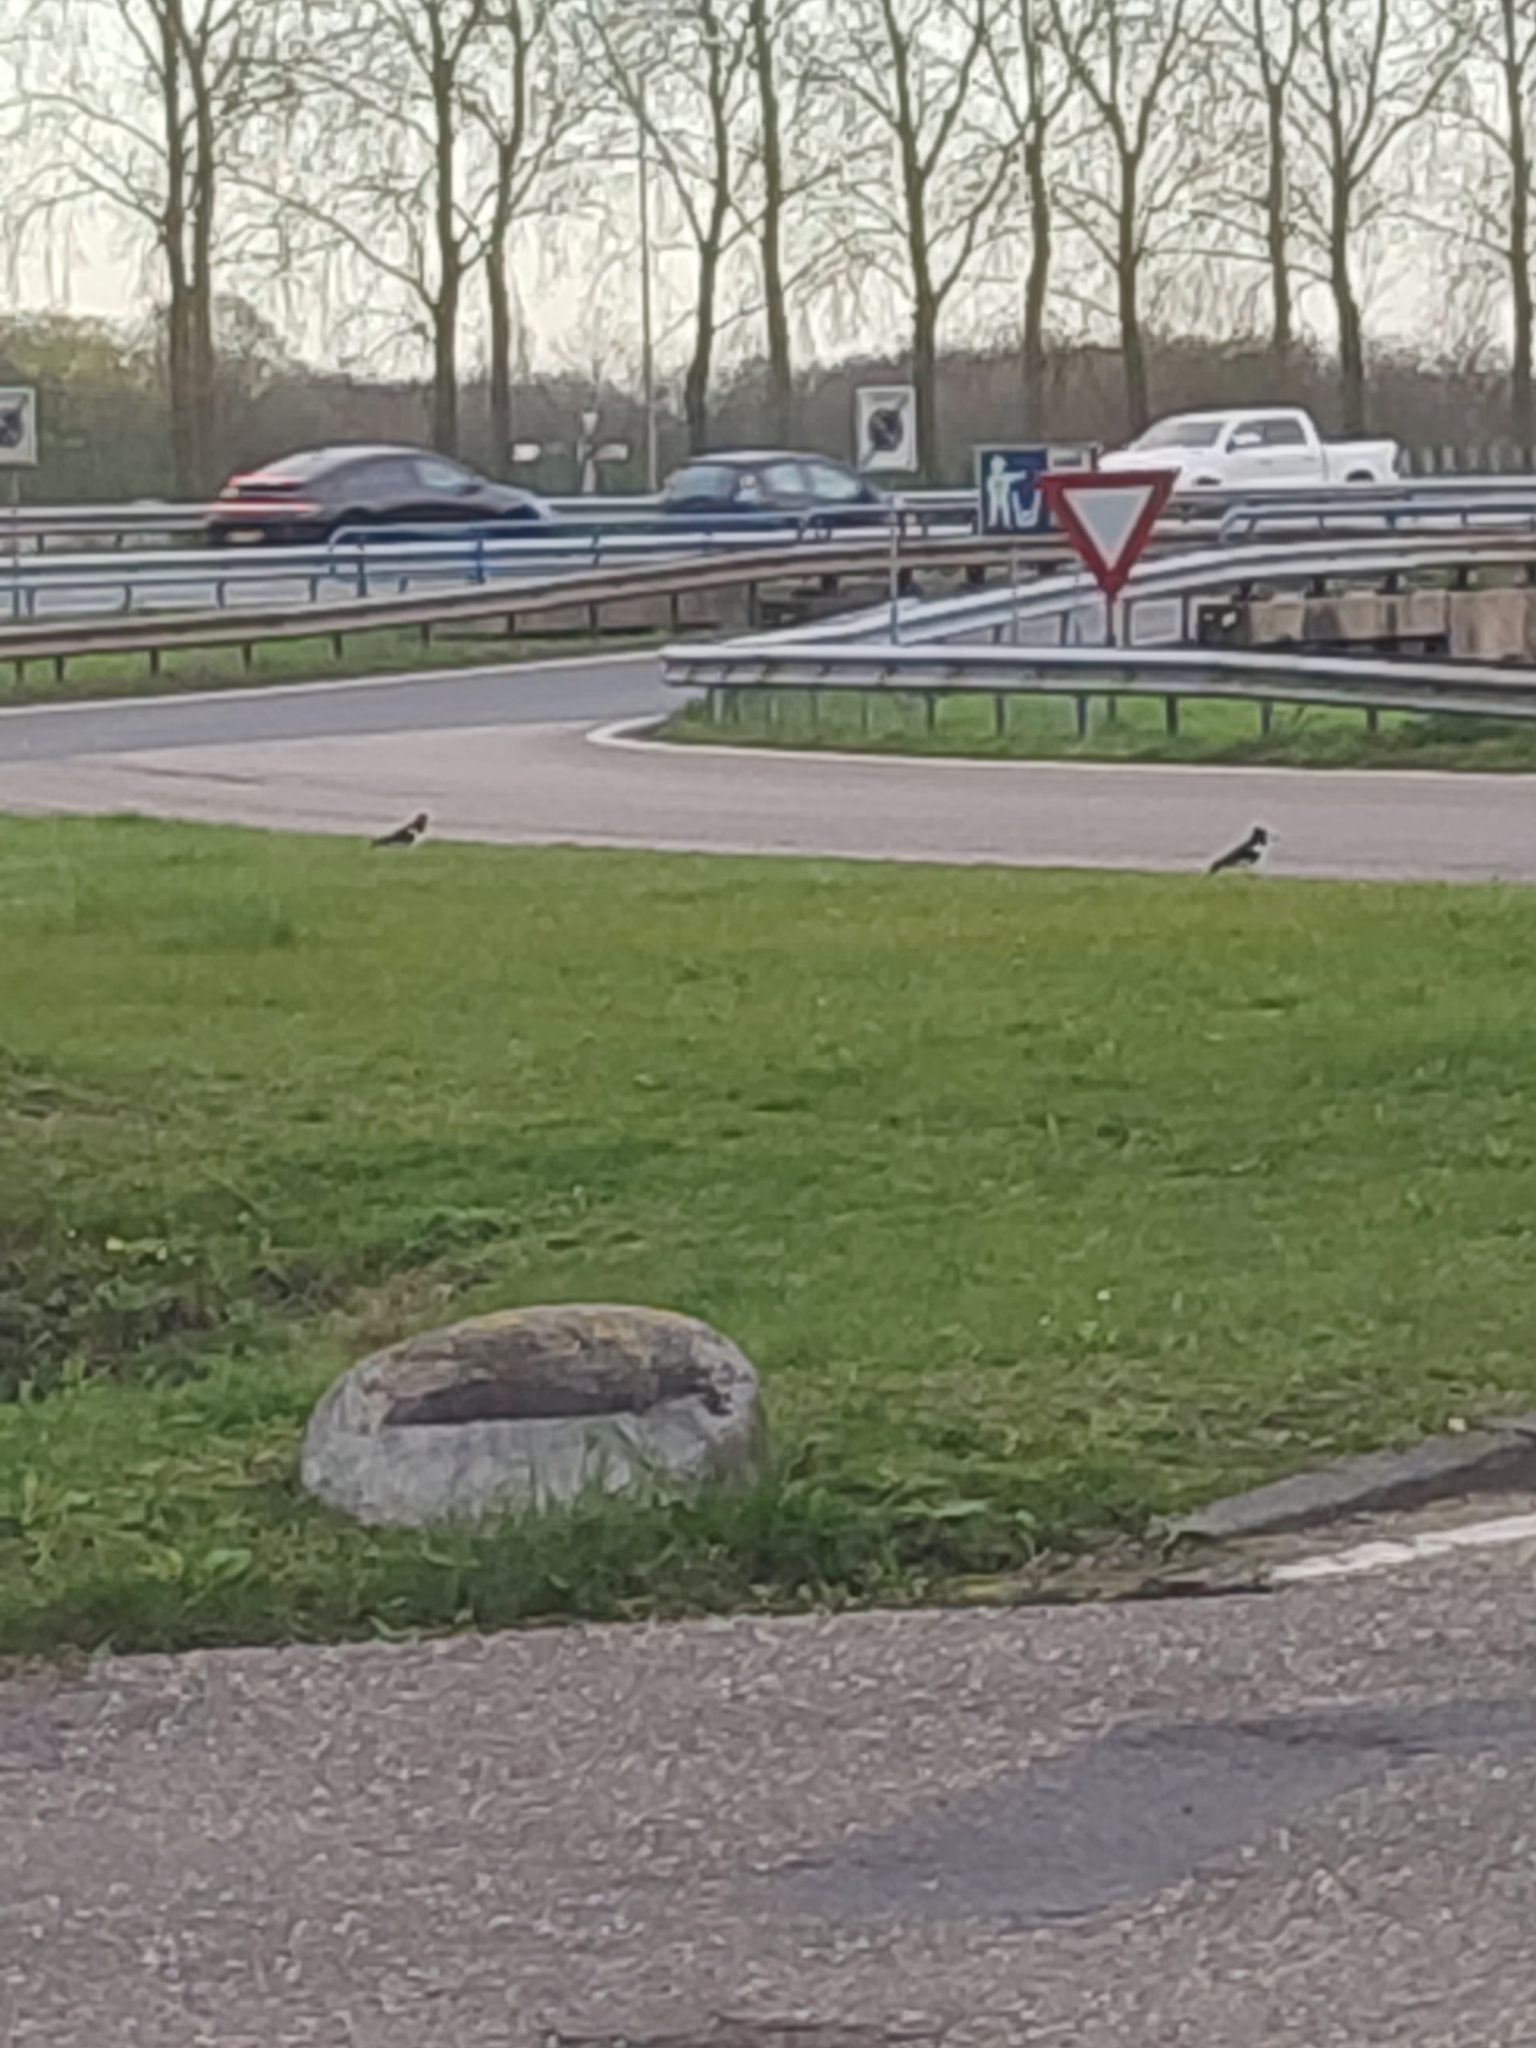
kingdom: Animalia
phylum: Chordata
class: Aves
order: Charadriiformes
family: Haematopodidae
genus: Haematopus
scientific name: Haematopus ostralegus
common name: Eurasian oystercatcher
